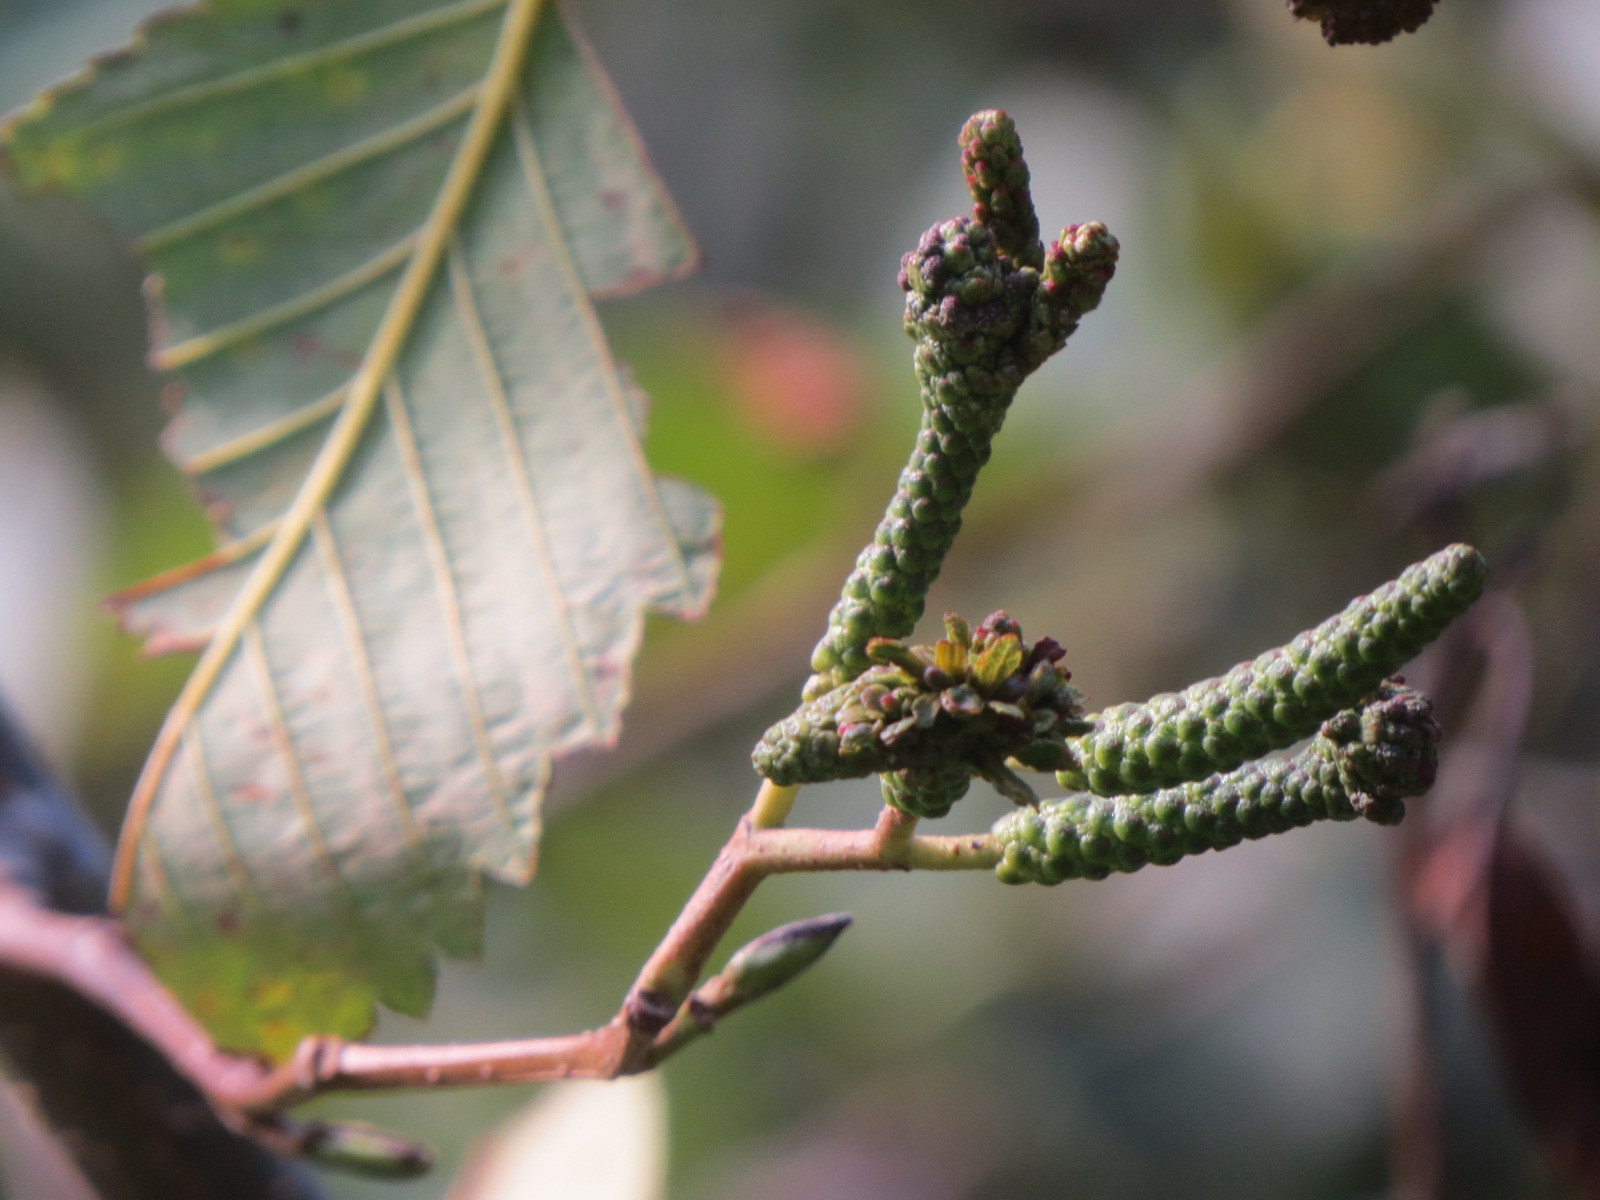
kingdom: Animalia
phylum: Arthropoda
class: Insecta
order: Diptera
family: Cecidomyiidae
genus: Dasineura
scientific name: Dasineura
